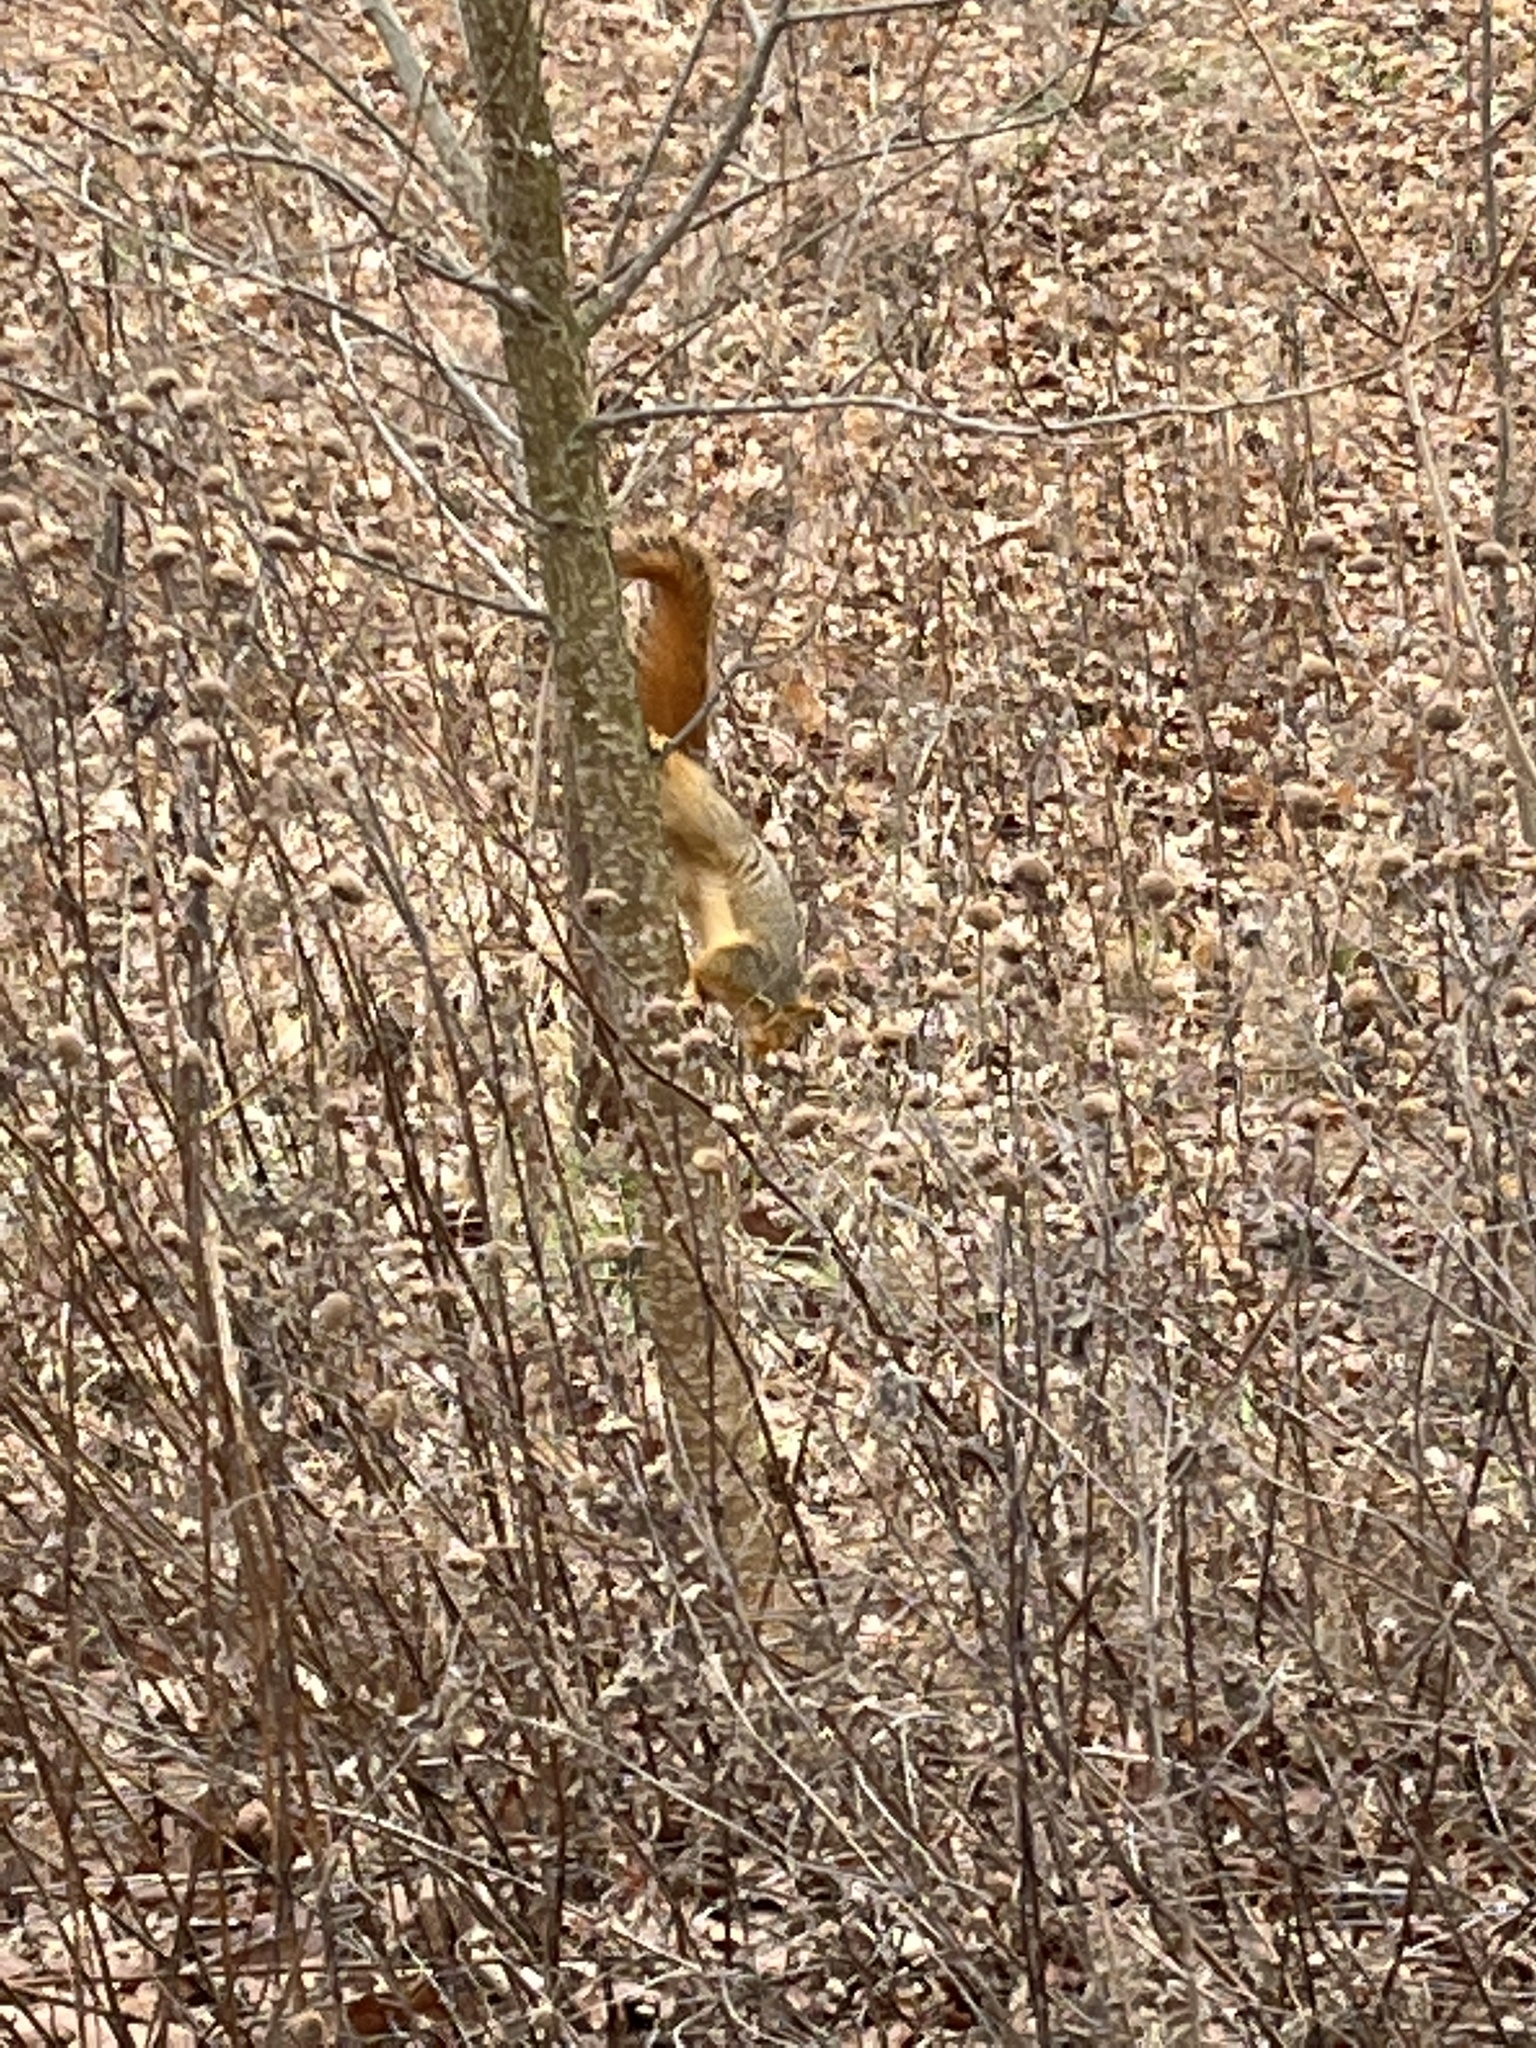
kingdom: Animalia
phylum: Chordata
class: Mammalia
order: Rodentia
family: Sciuridae
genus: Sciurus
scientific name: Sciurus niger
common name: Fox squirrel
